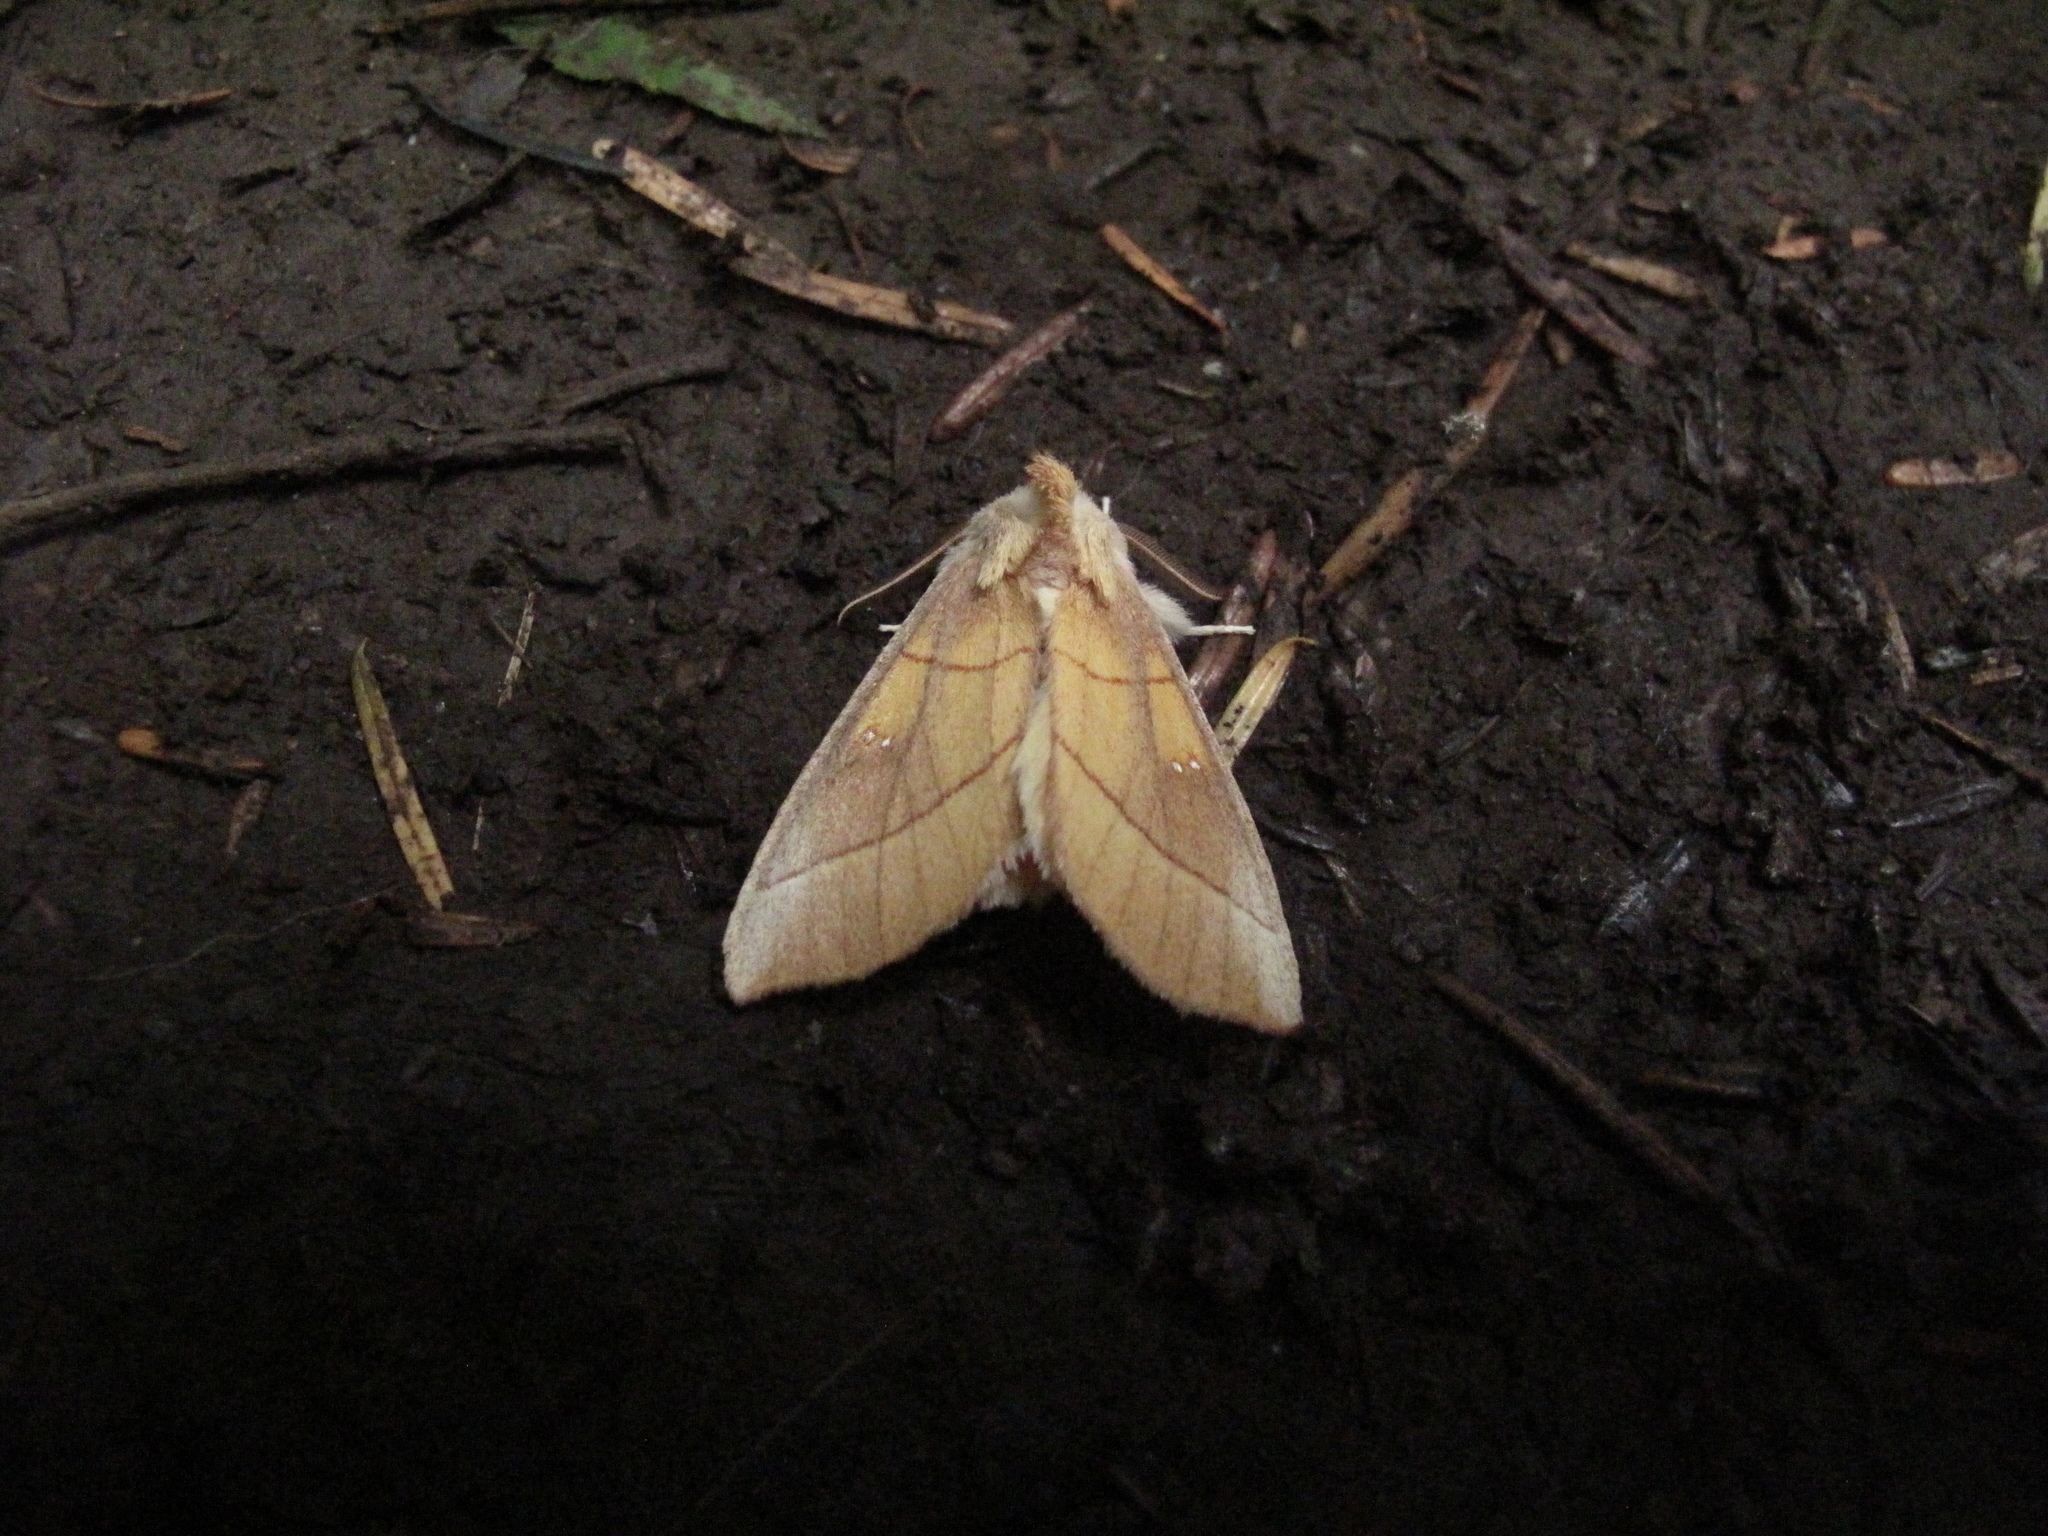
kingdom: Animalia
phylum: Arthropoda
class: Insecta
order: Lepidoptera
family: Notodontidae
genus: Nadata
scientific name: Nadata gibbosa
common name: White-dotted prominent
